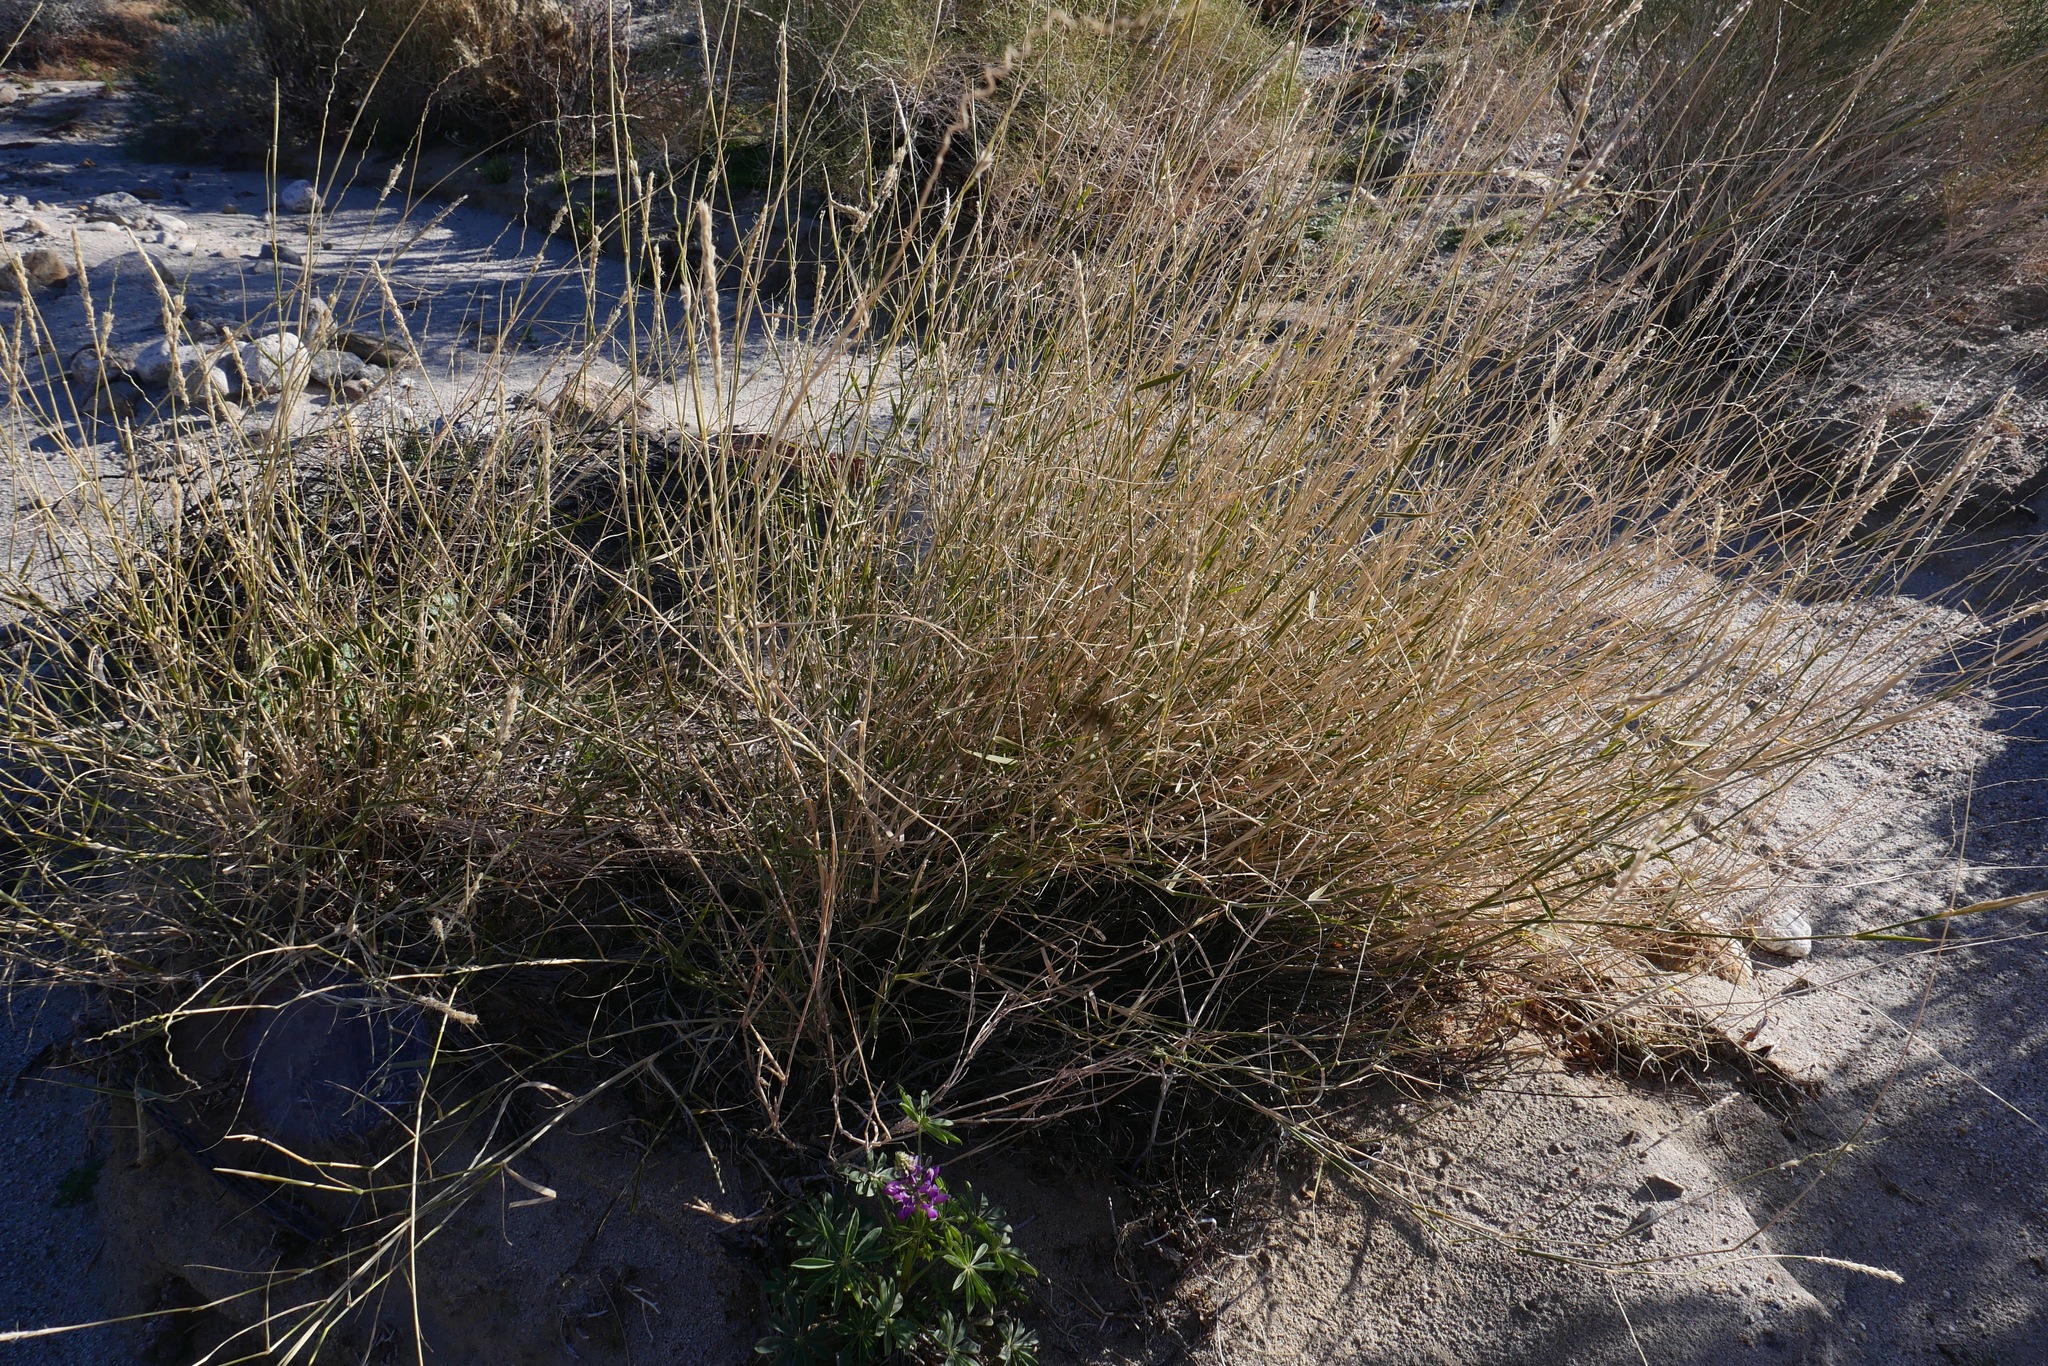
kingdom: Plantae
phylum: Tracheophyta
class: Liliopsida
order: Poales
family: Poaceae
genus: Hilaria
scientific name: Hilaria rigida
